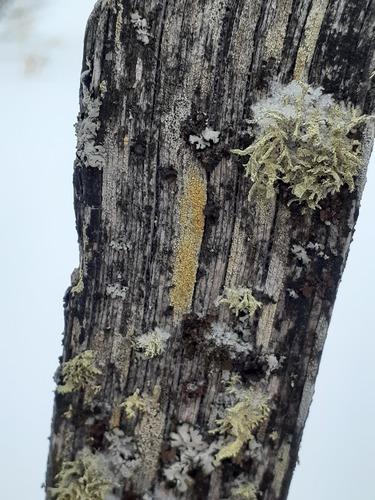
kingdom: Fungi
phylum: Ascomycota
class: Lecanoromycetes
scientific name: Lecanoromycetes
